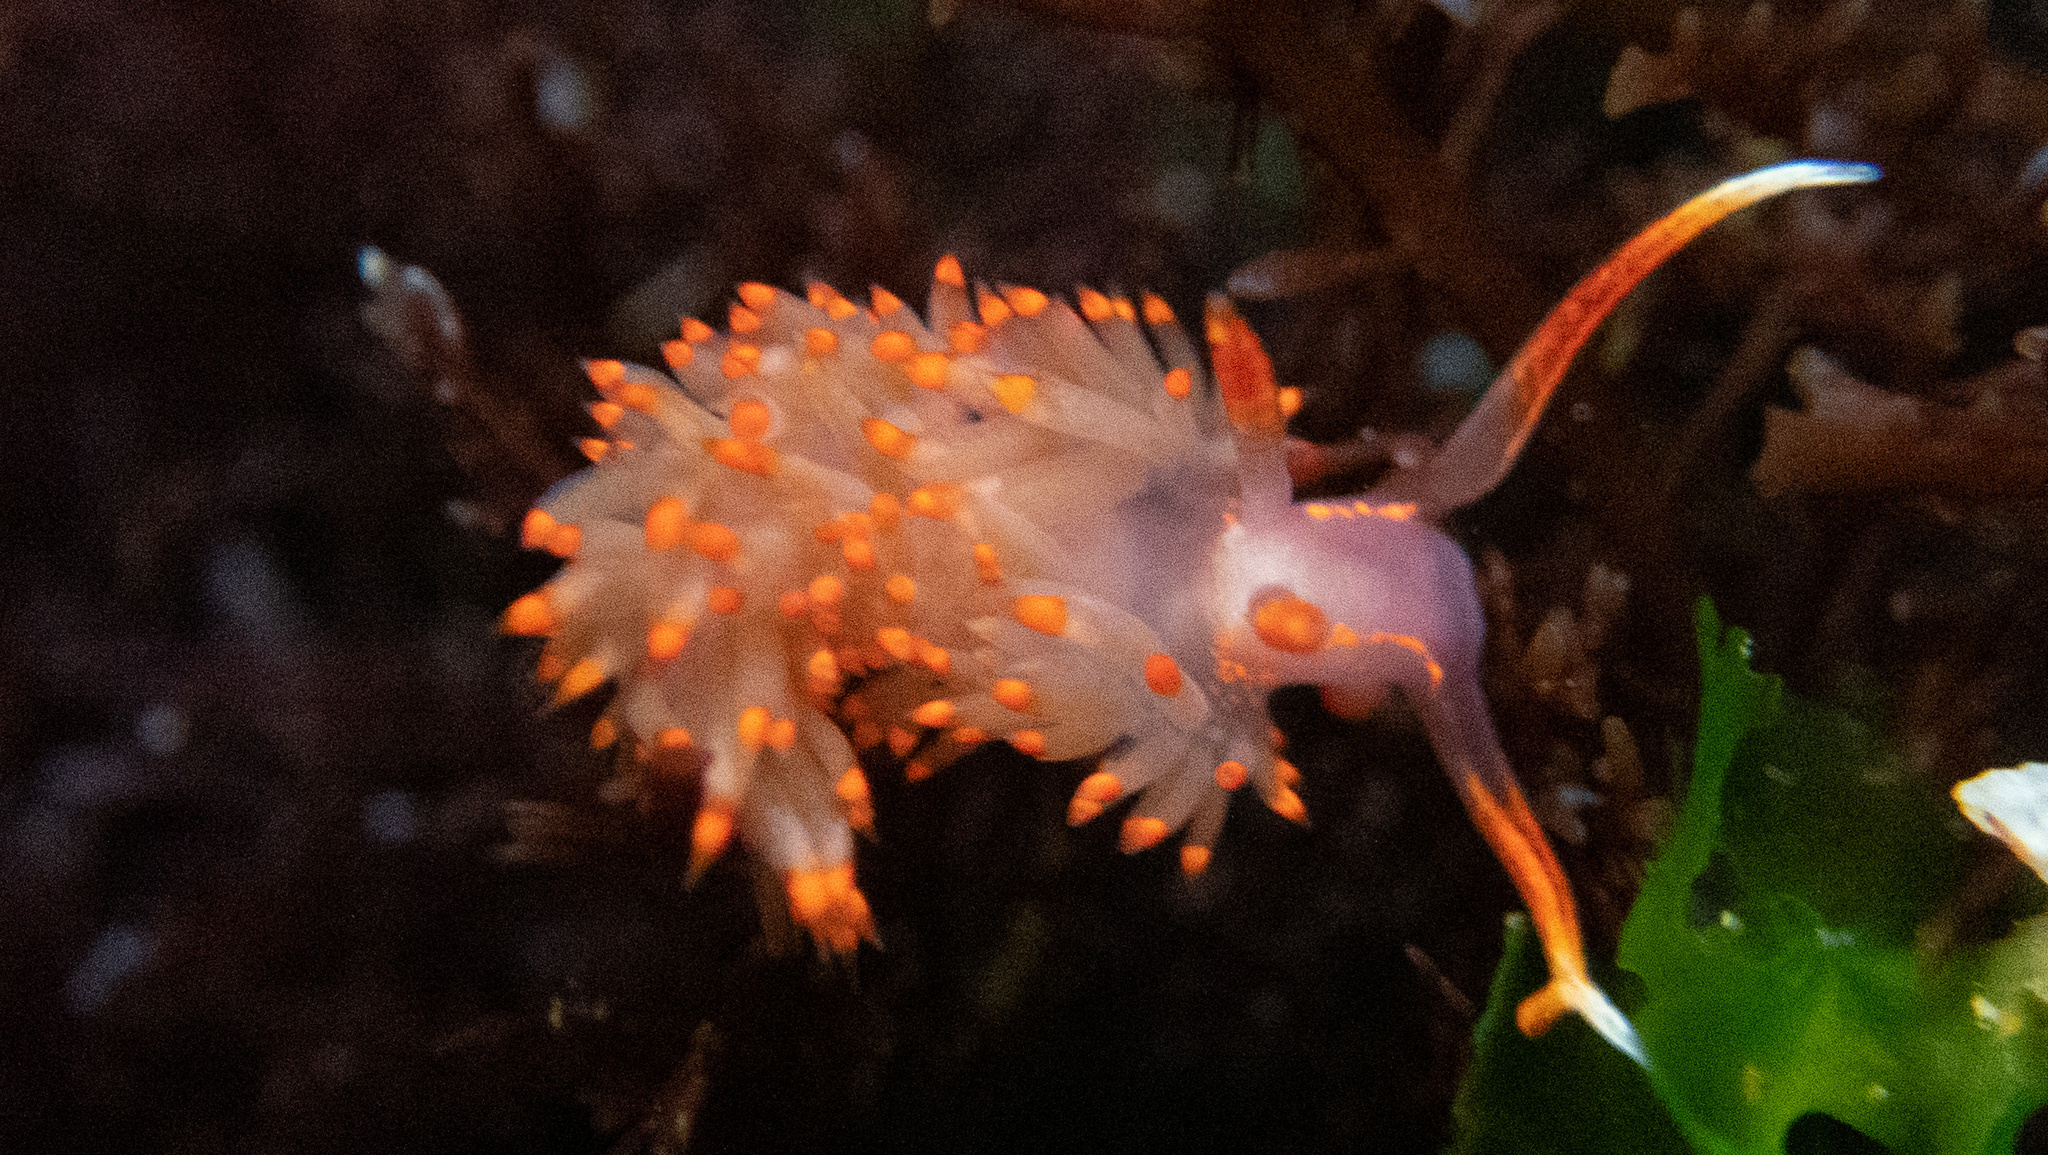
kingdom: Animalia
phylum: Mollusca
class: Gastropoda
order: Nudibranchia
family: Facelinidae
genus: Austraeolis
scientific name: Austraeolis stearnsi
